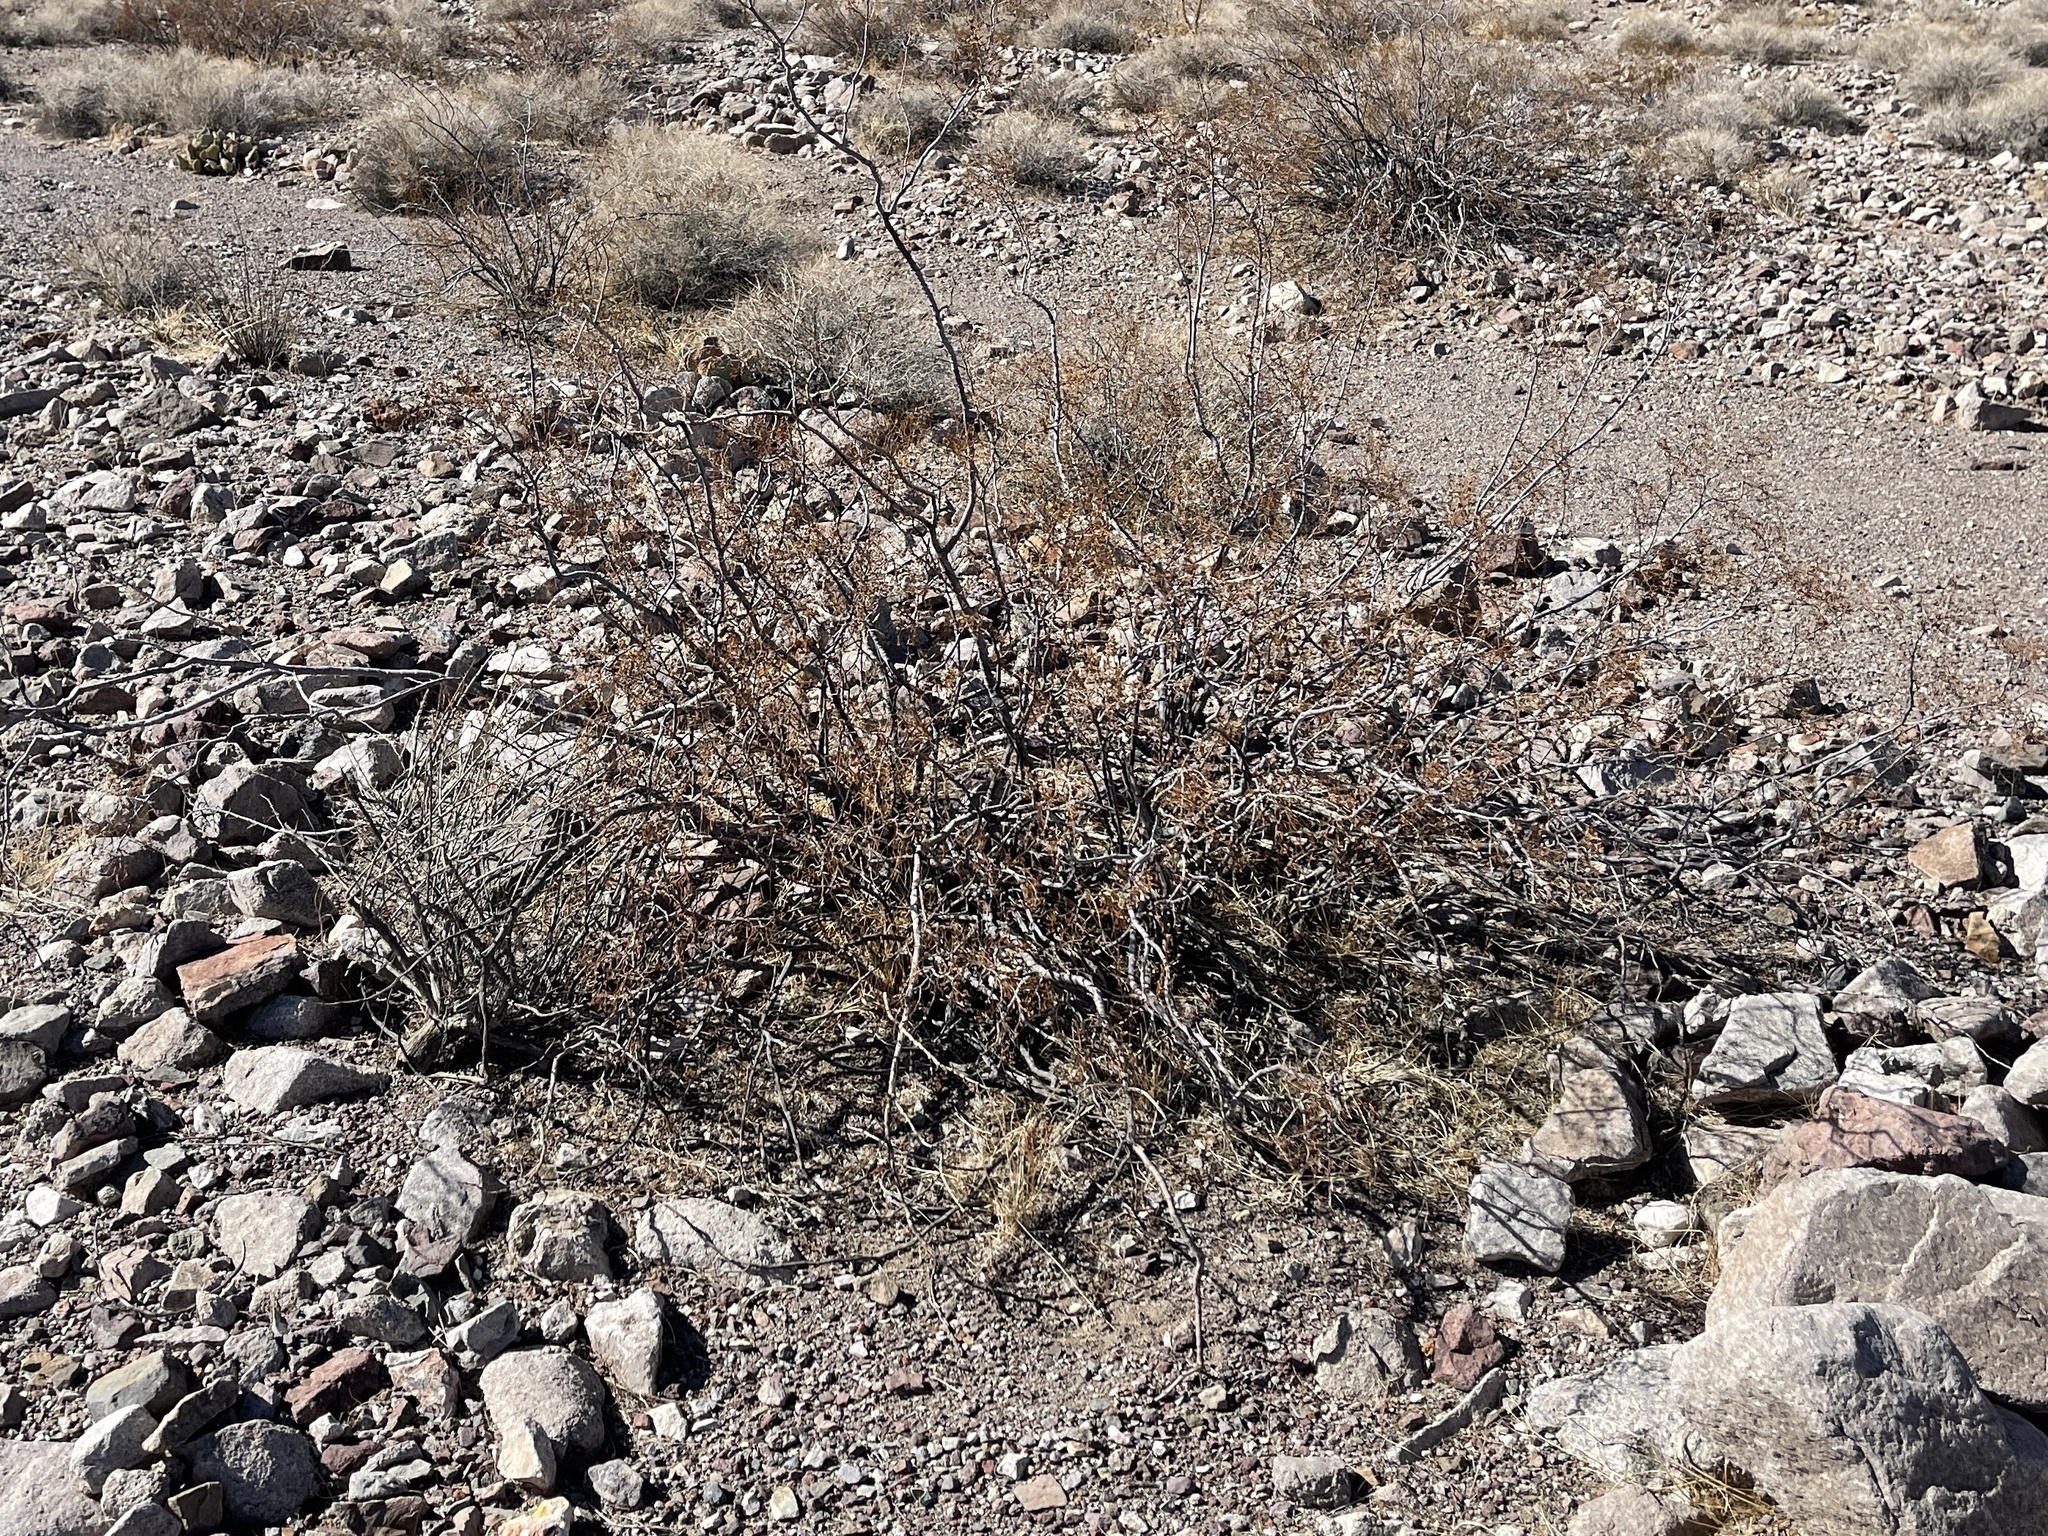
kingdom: Plantae
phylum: Tracheophyta
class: Magnoliopsida
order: Zygophyllales
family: Zygophyllaceae
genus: Larrea
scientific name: Larrea tridentata
